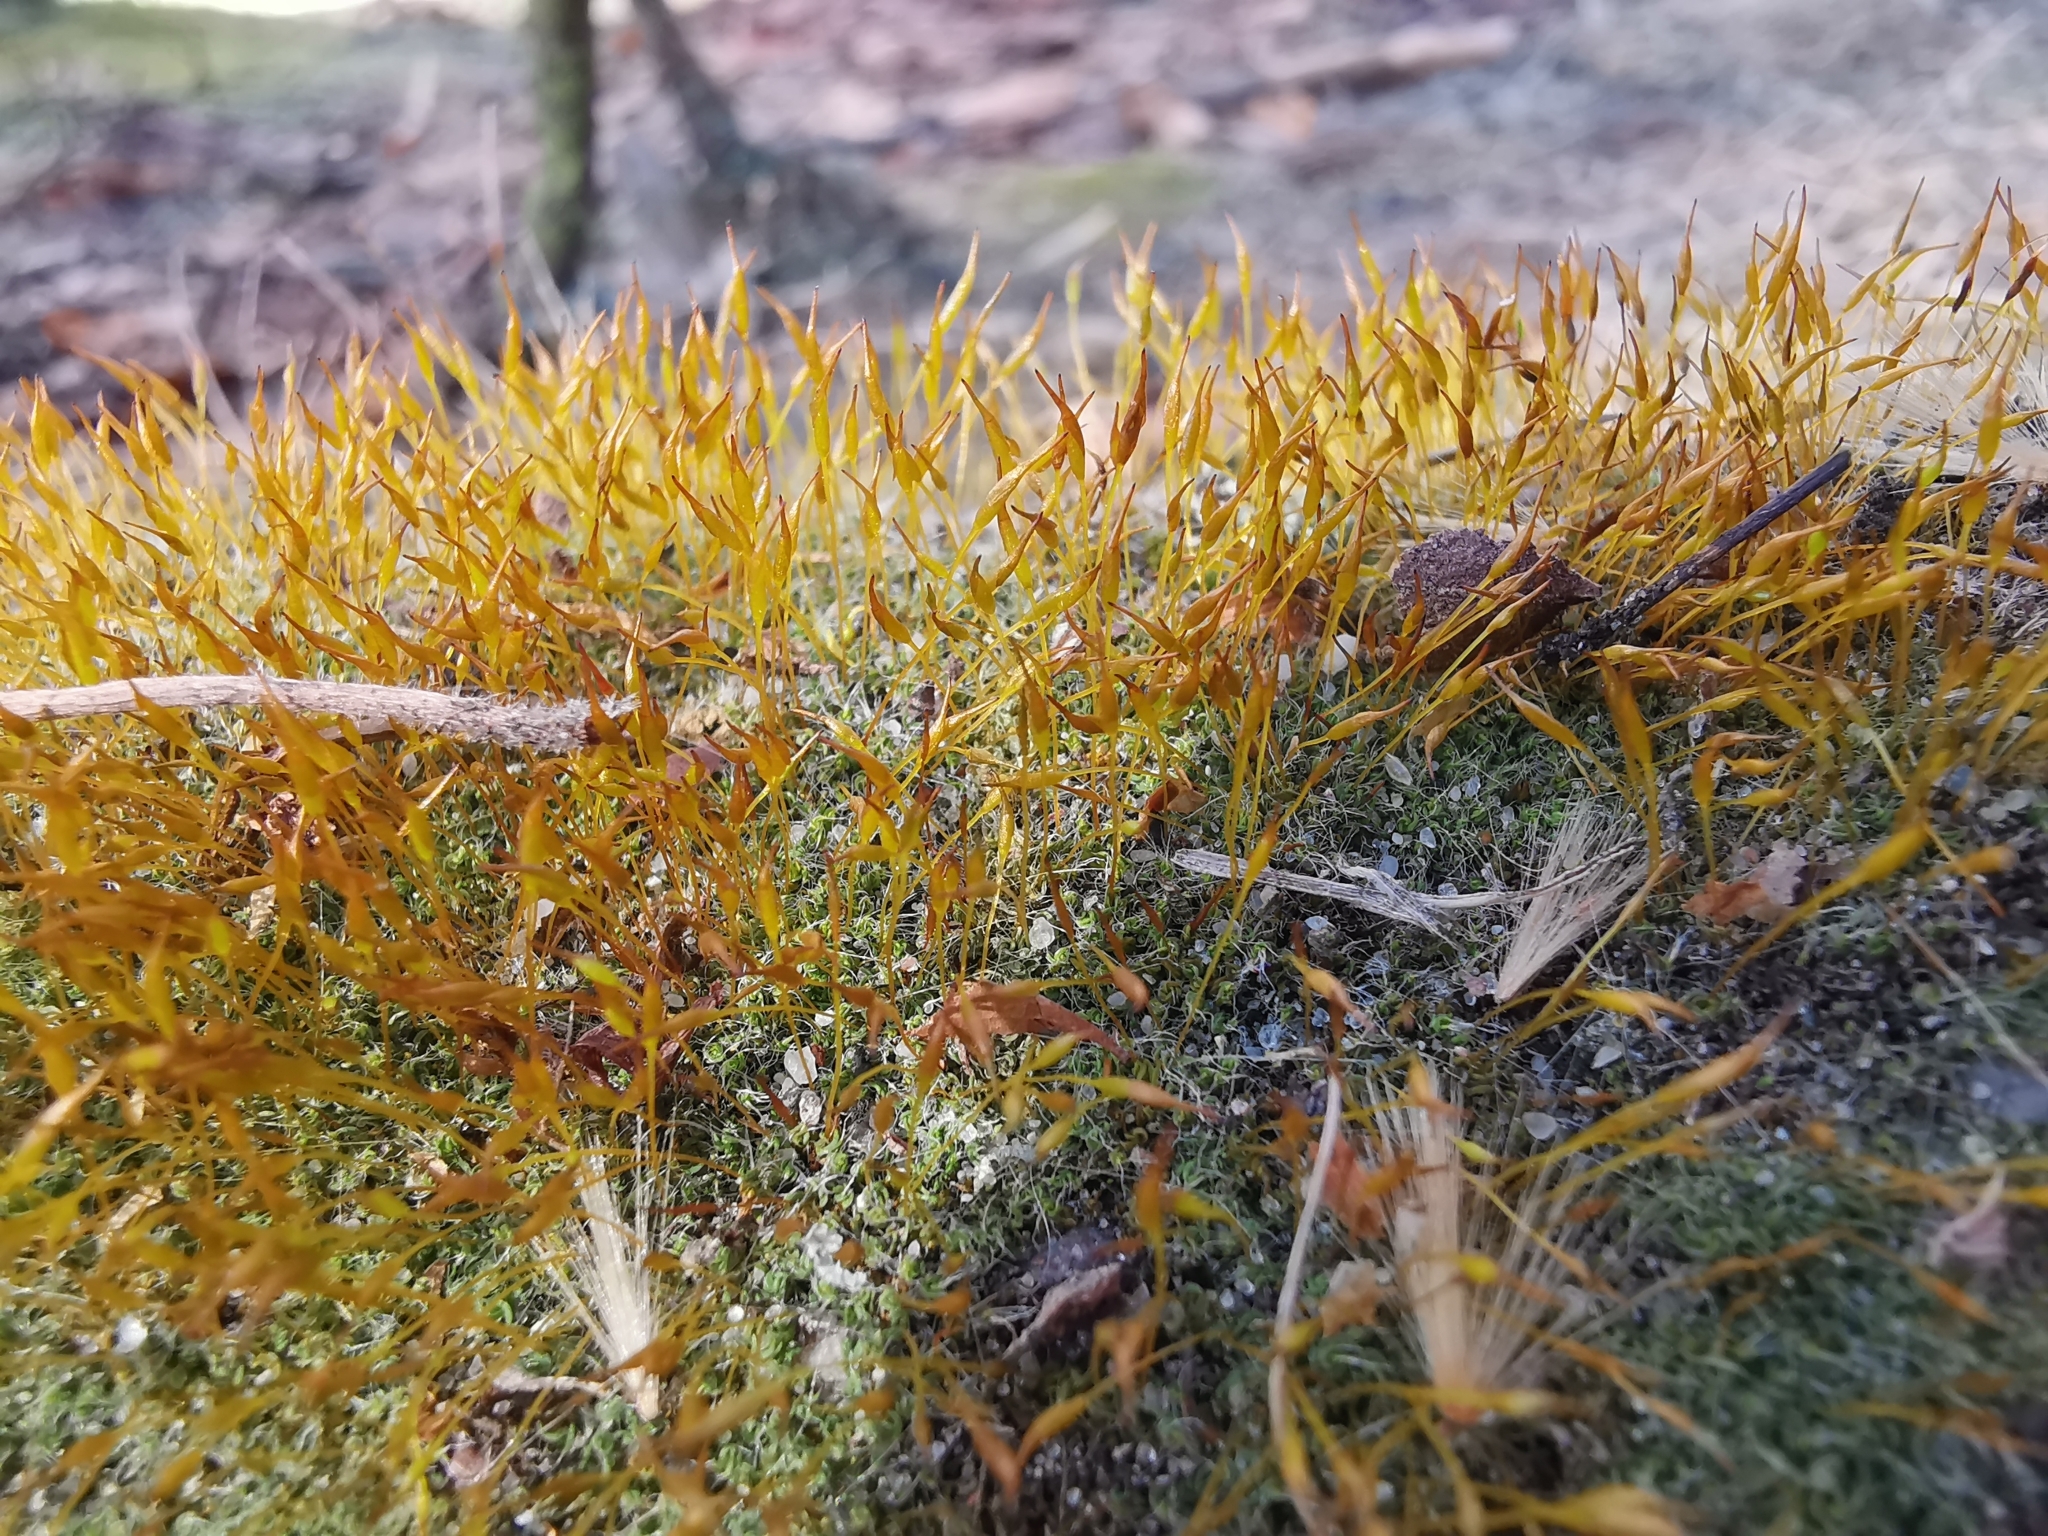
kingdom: Plantae
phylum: Bryophyta
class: Bryopsida
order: Pottiales
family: Pottiaceae
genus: Tortula
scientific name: Tortula muralis
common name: Wall screw-moss
